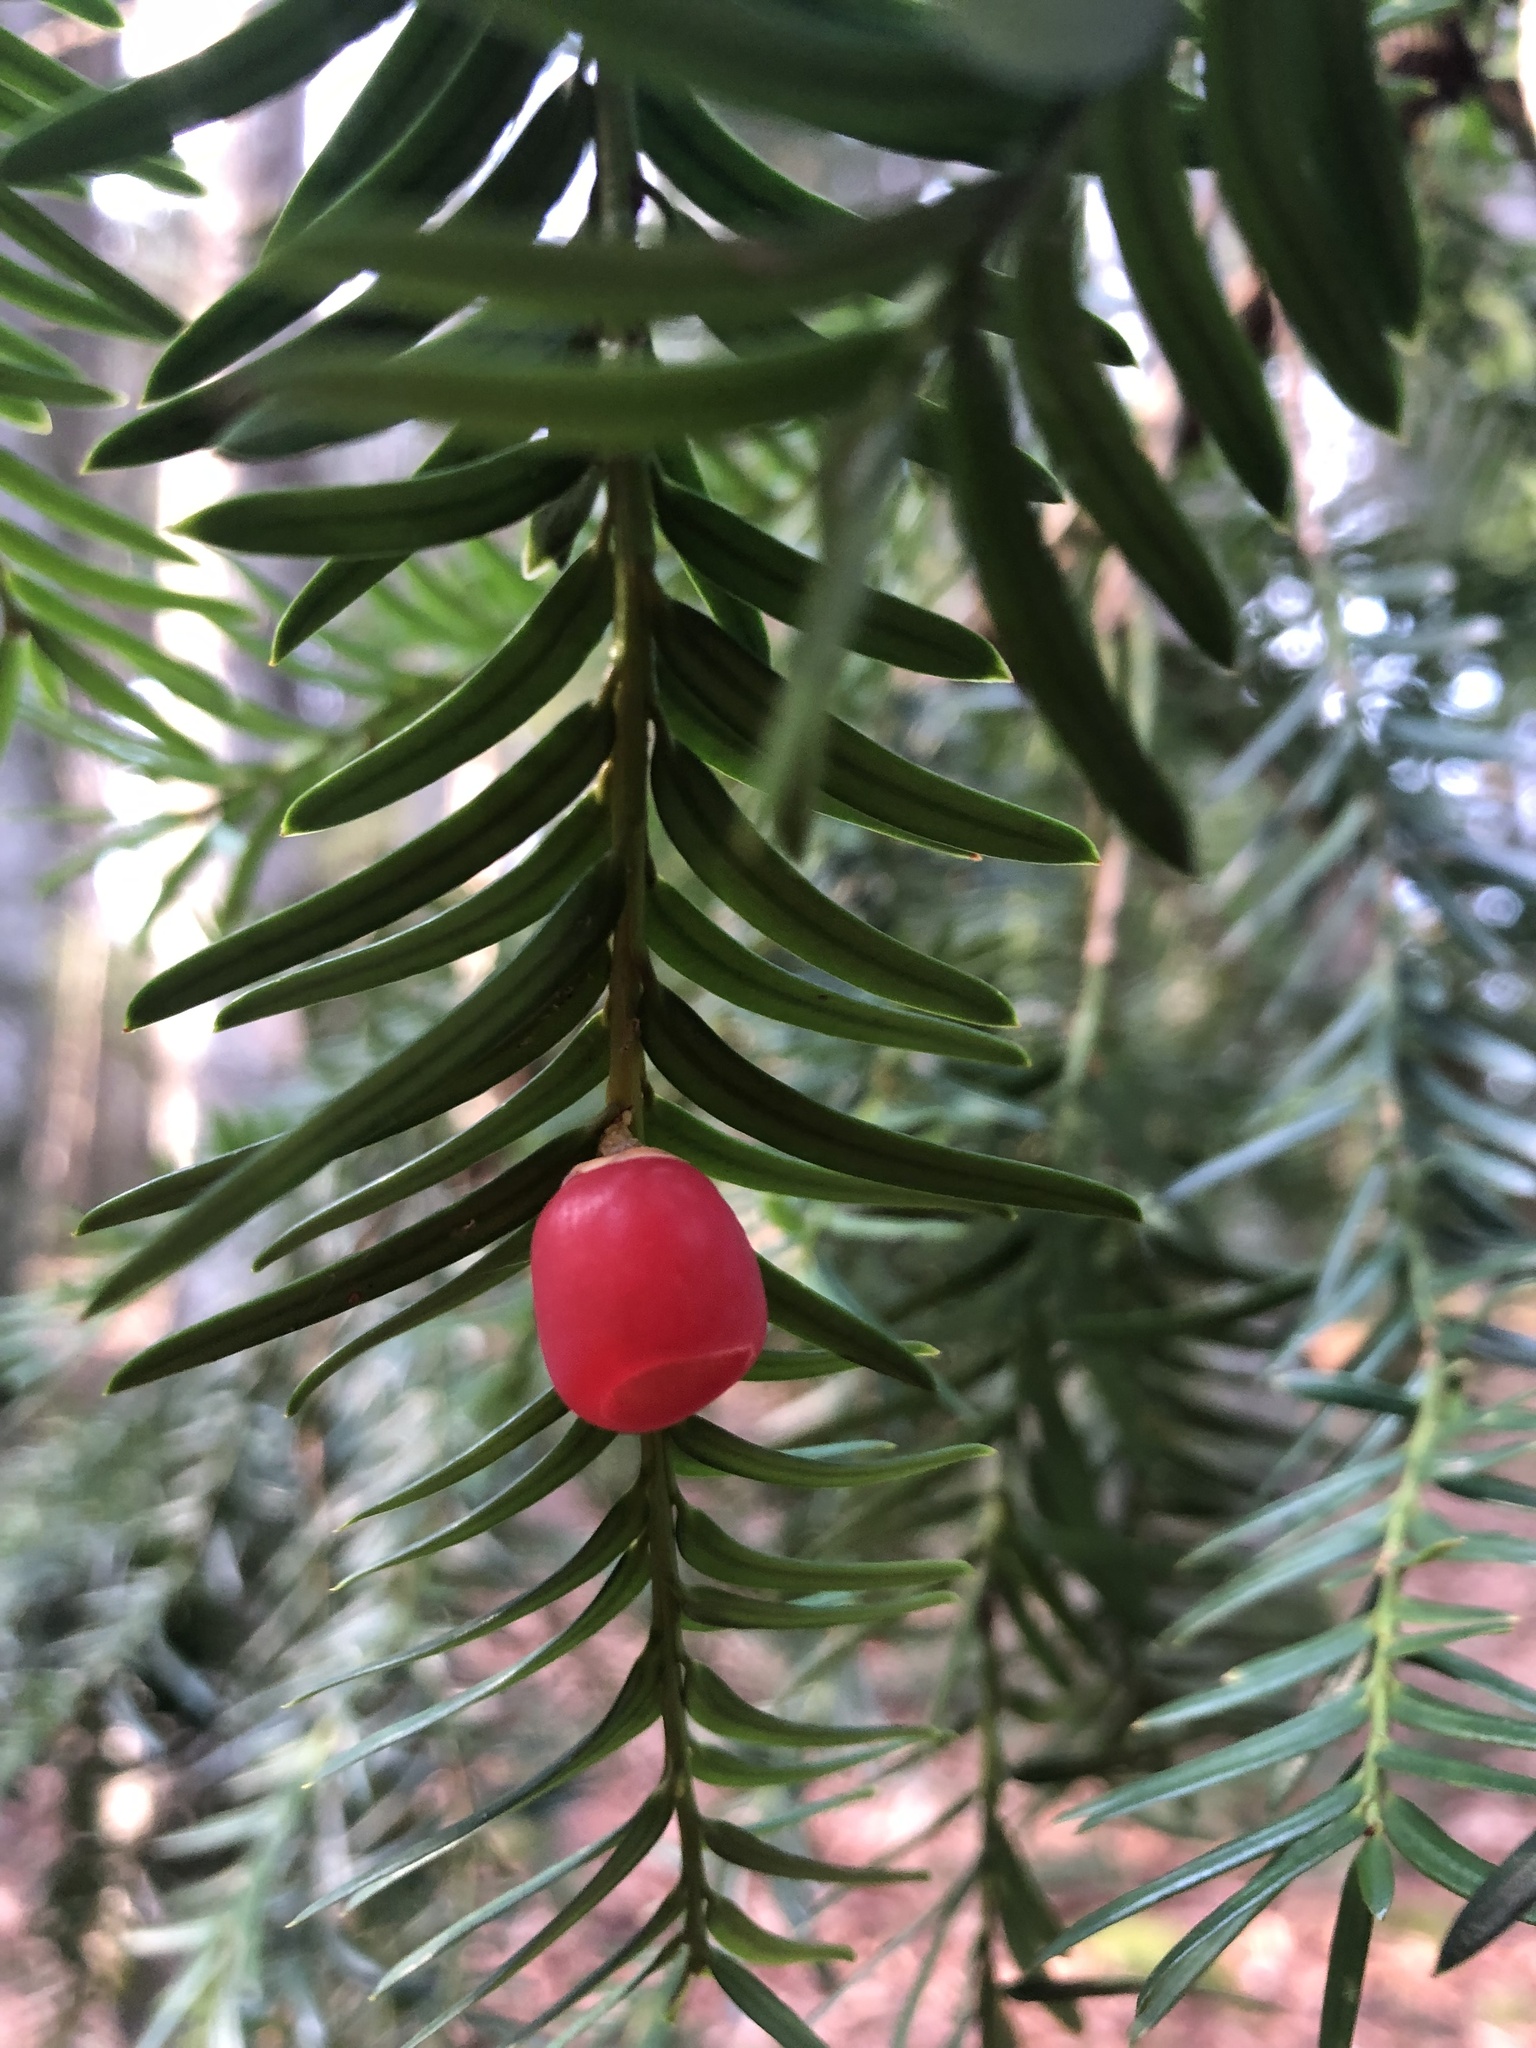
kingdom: Plantae
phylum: Tracheophyta
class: Pinopsida
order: Pinales
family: Taxaceae
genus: Taxus
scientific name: Taxus baccata
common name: Yew
